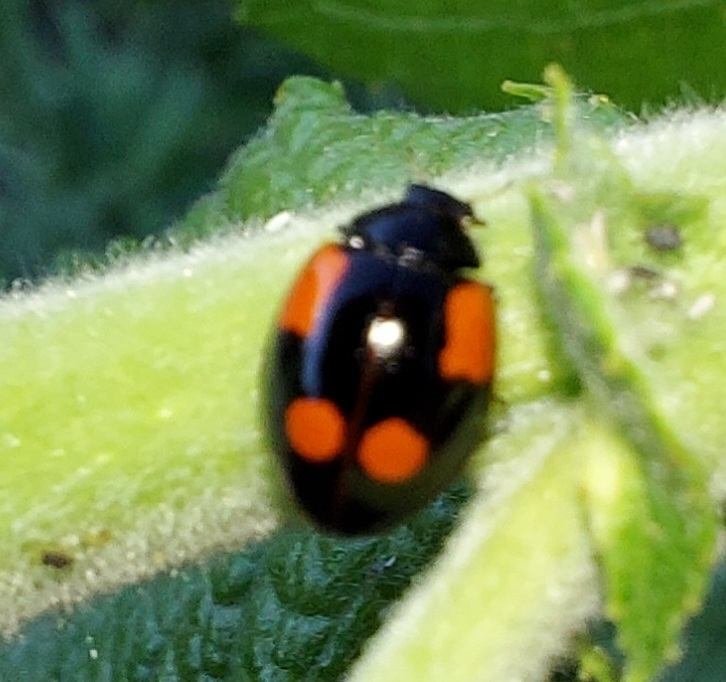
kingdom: Animalia
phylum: Arthropoda
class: Insecta
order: Coleoptera
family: Coccinellidae
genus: Adalia
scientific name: Adalia bipunctata
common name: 2-spot ladybird
